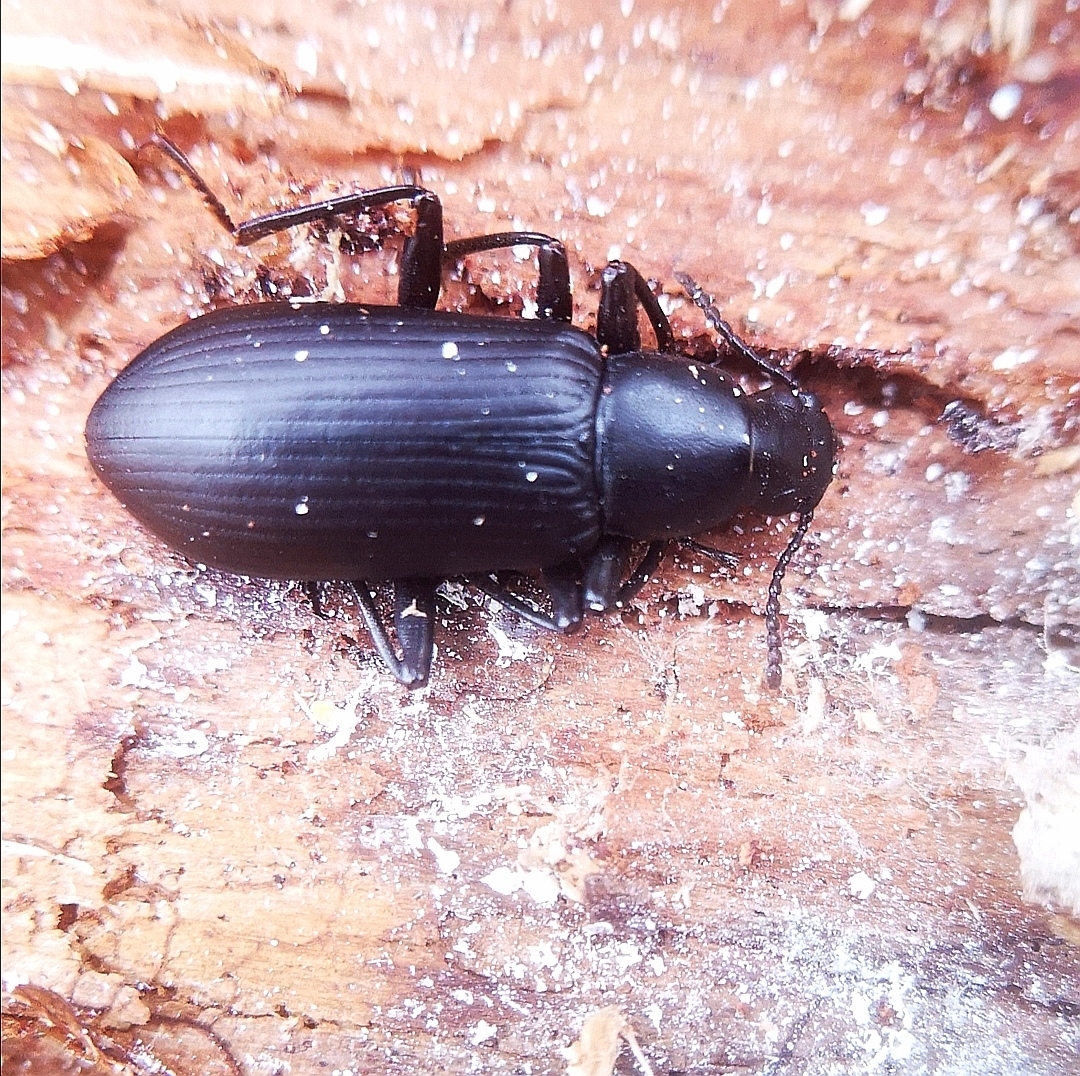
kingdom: Animalia
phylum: Arthropoda
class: Insecta
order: Coleoptera
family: Tenebrionidae
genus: Alobates
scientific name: Alobates pensylvanicus
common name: False mealworm beetle
